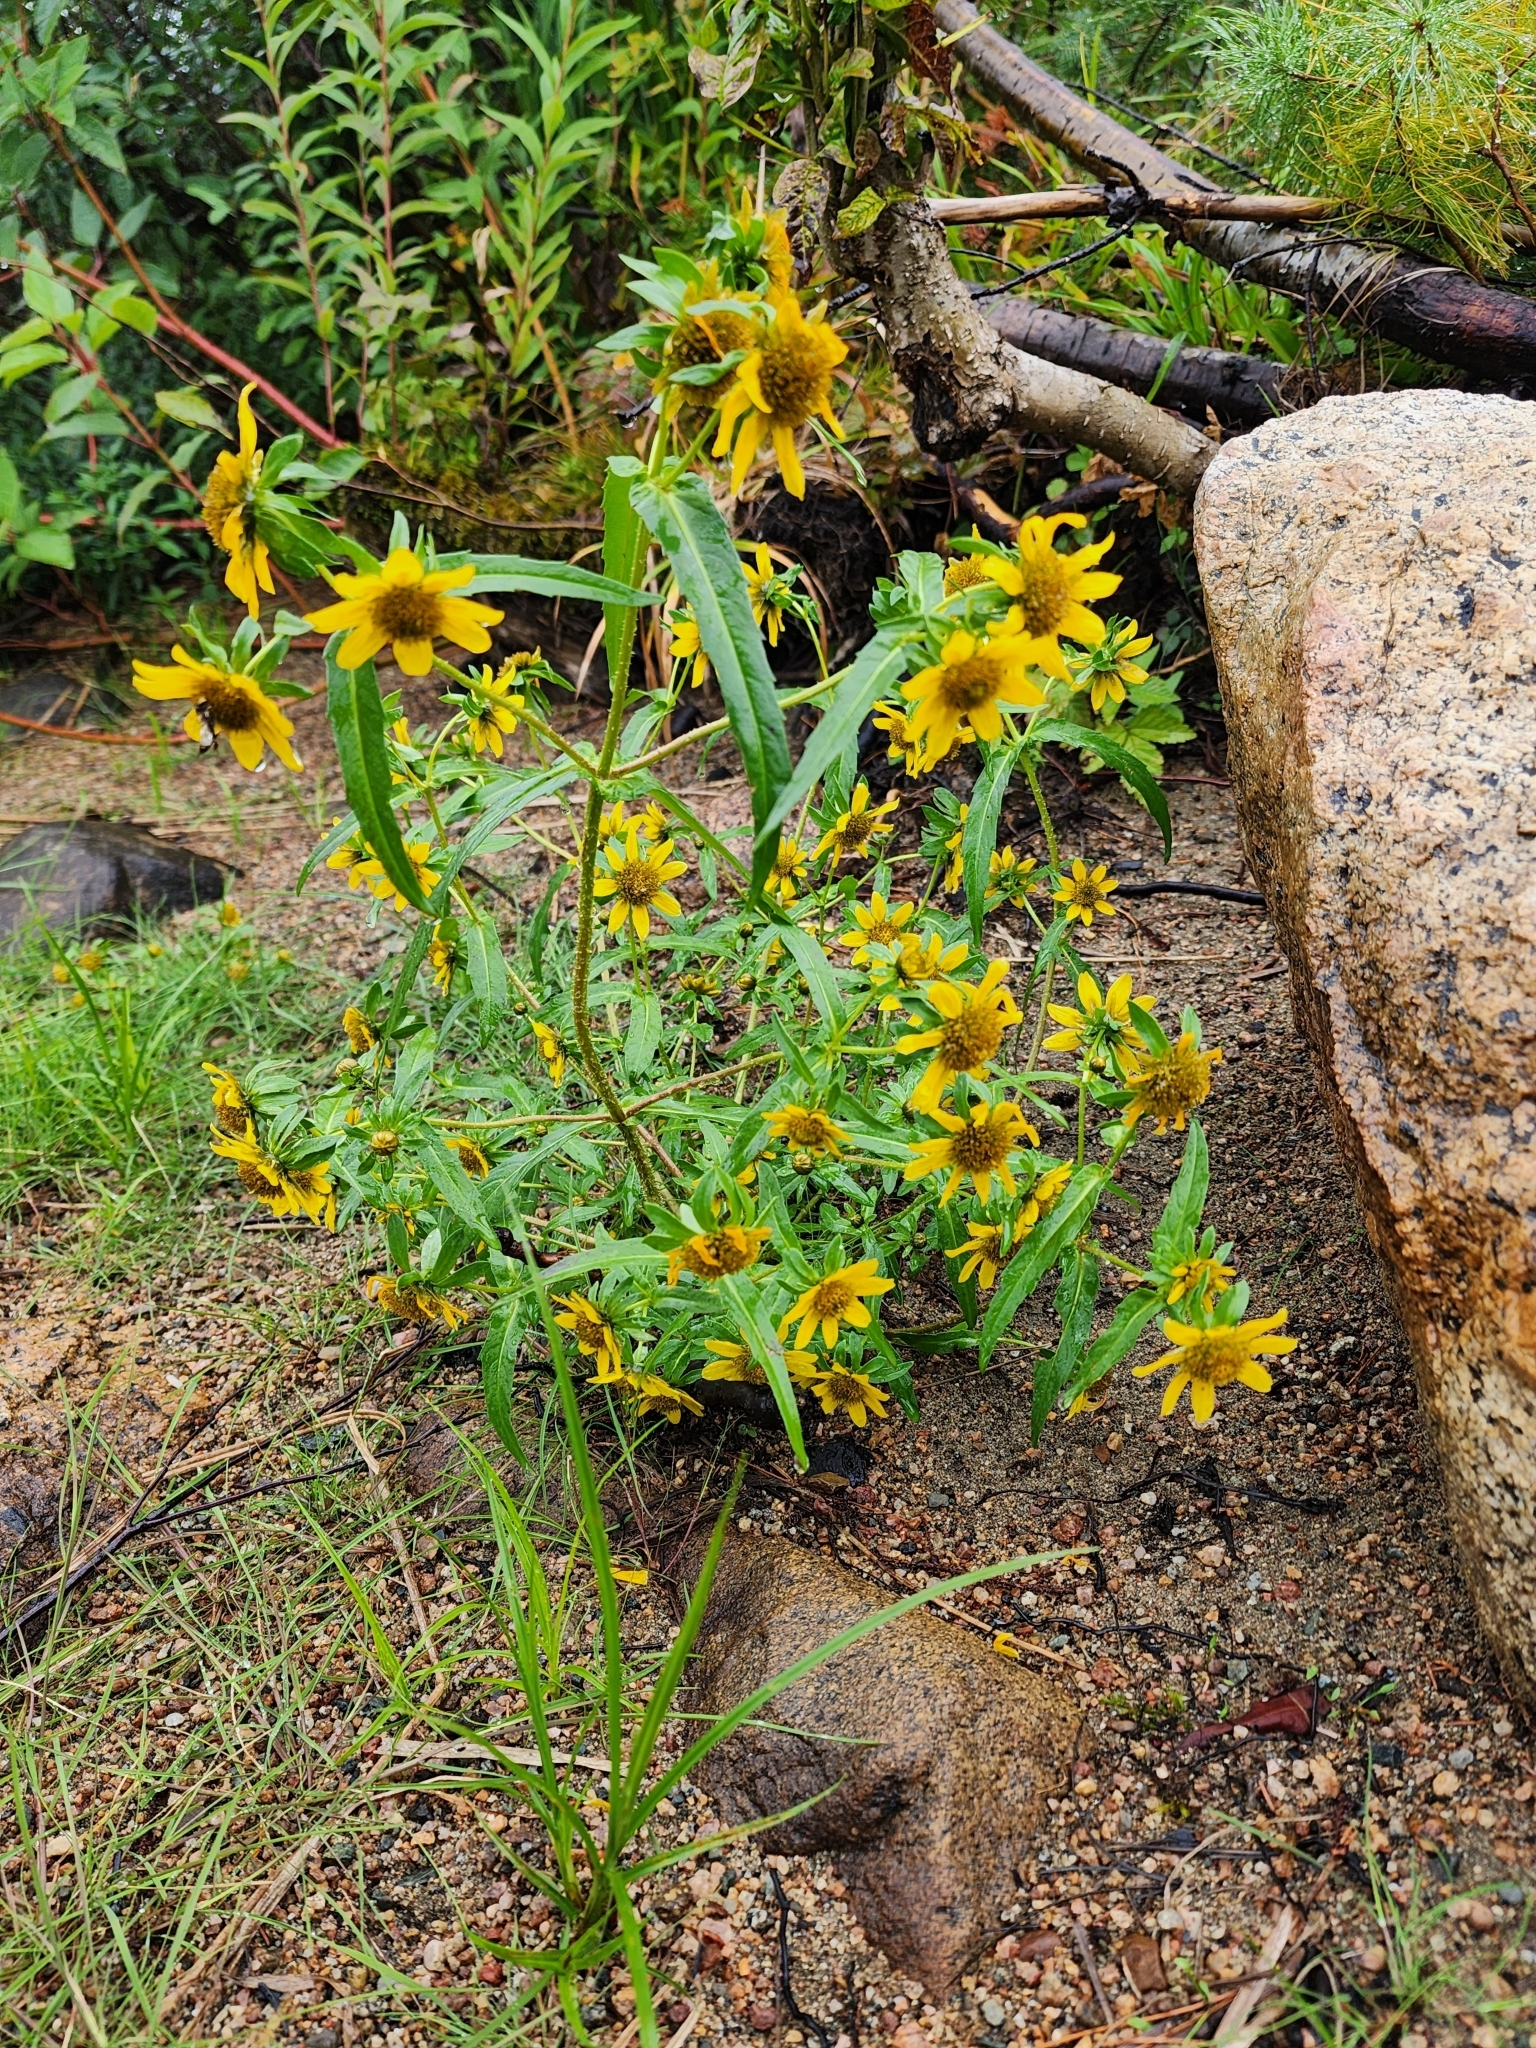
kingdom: Plantae
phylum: Tracheophyta
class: Magnoliopsida
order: Asterales
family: Asteraceae
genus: Bidens
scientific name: Bidens cernua
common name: Nodding bur-marigold
